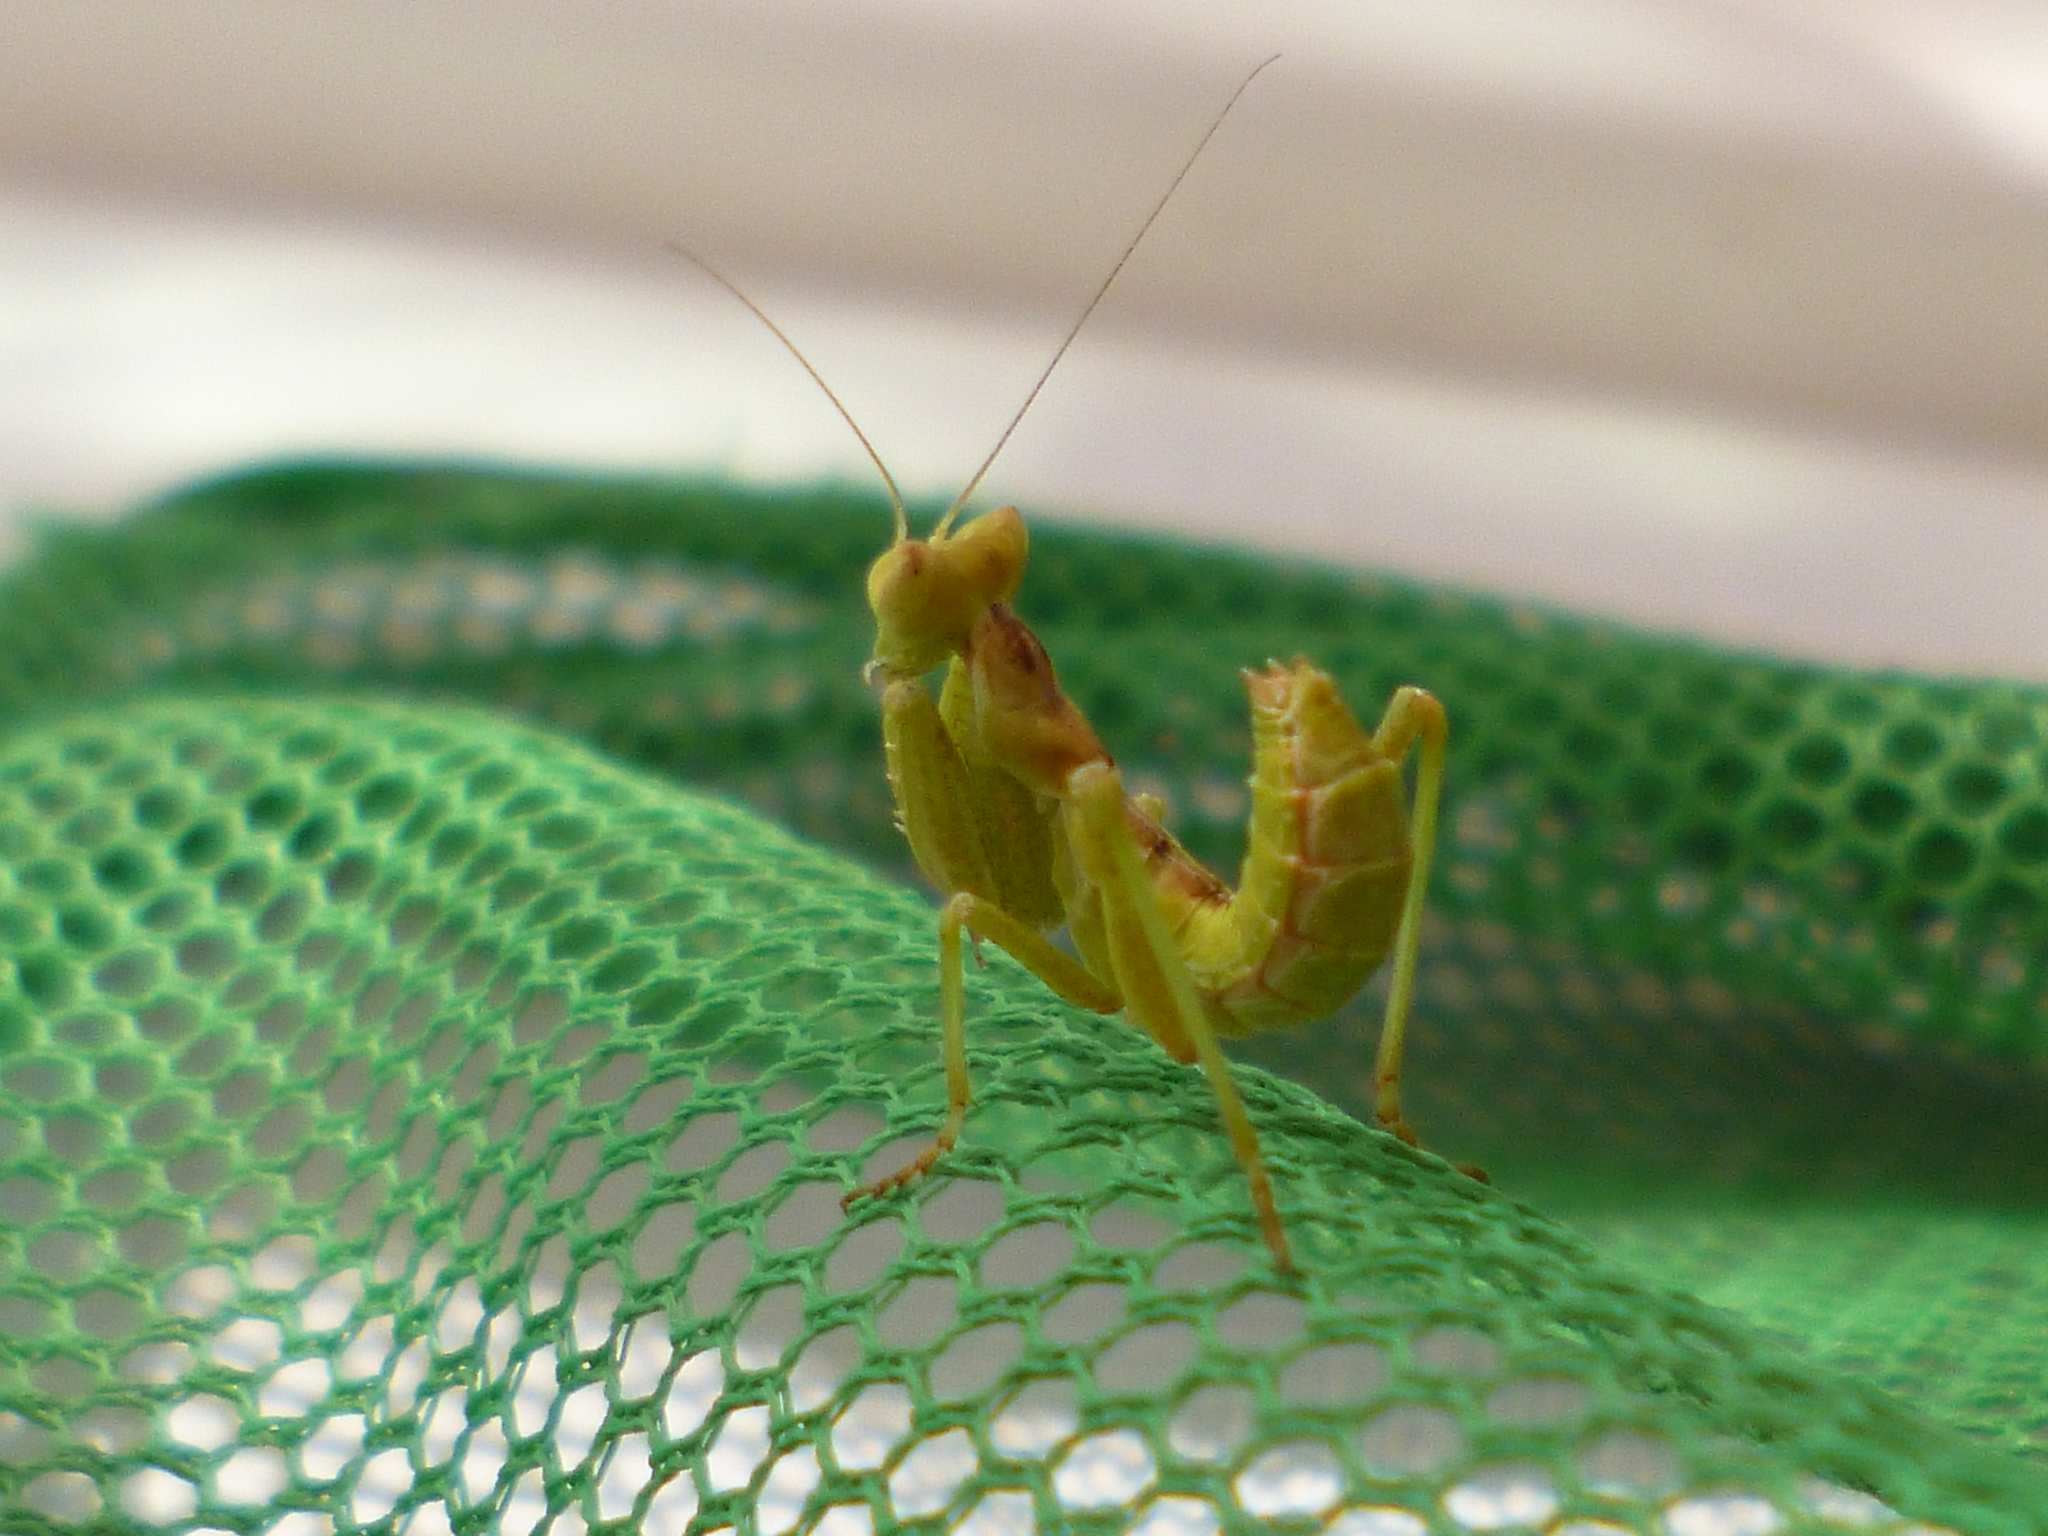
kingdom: Animalia
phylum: Arthropoda
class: Insecta
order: Mantodea
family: Amelidae
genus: Ameles
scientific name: Ameles spallanzania
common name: European dwarf mantis
